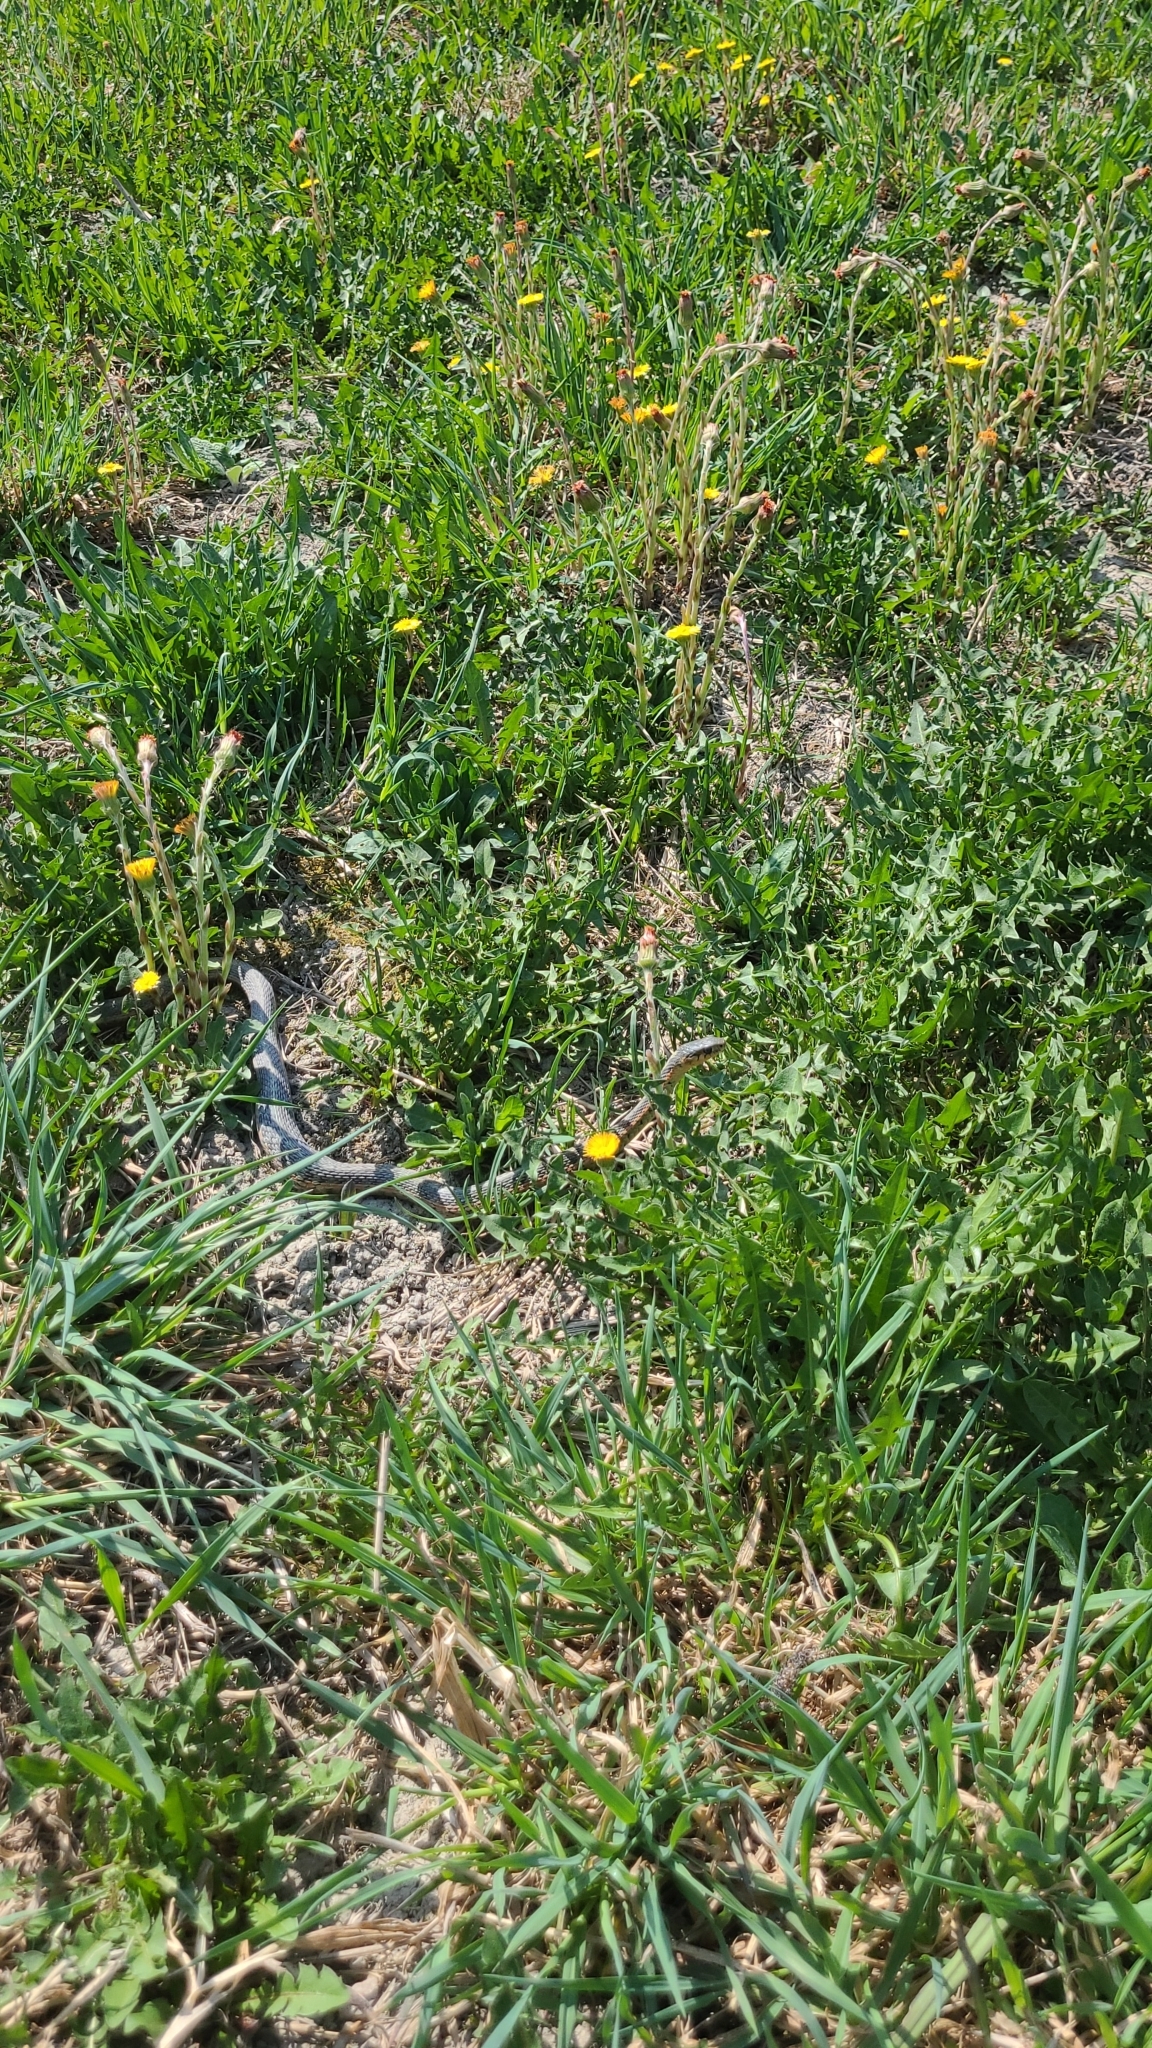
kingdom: Animalia
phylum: Chordata
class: Squamata
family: Colubridae
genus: Thamnophis
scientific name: Thamnophis sirtalis
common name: Common garter snake
